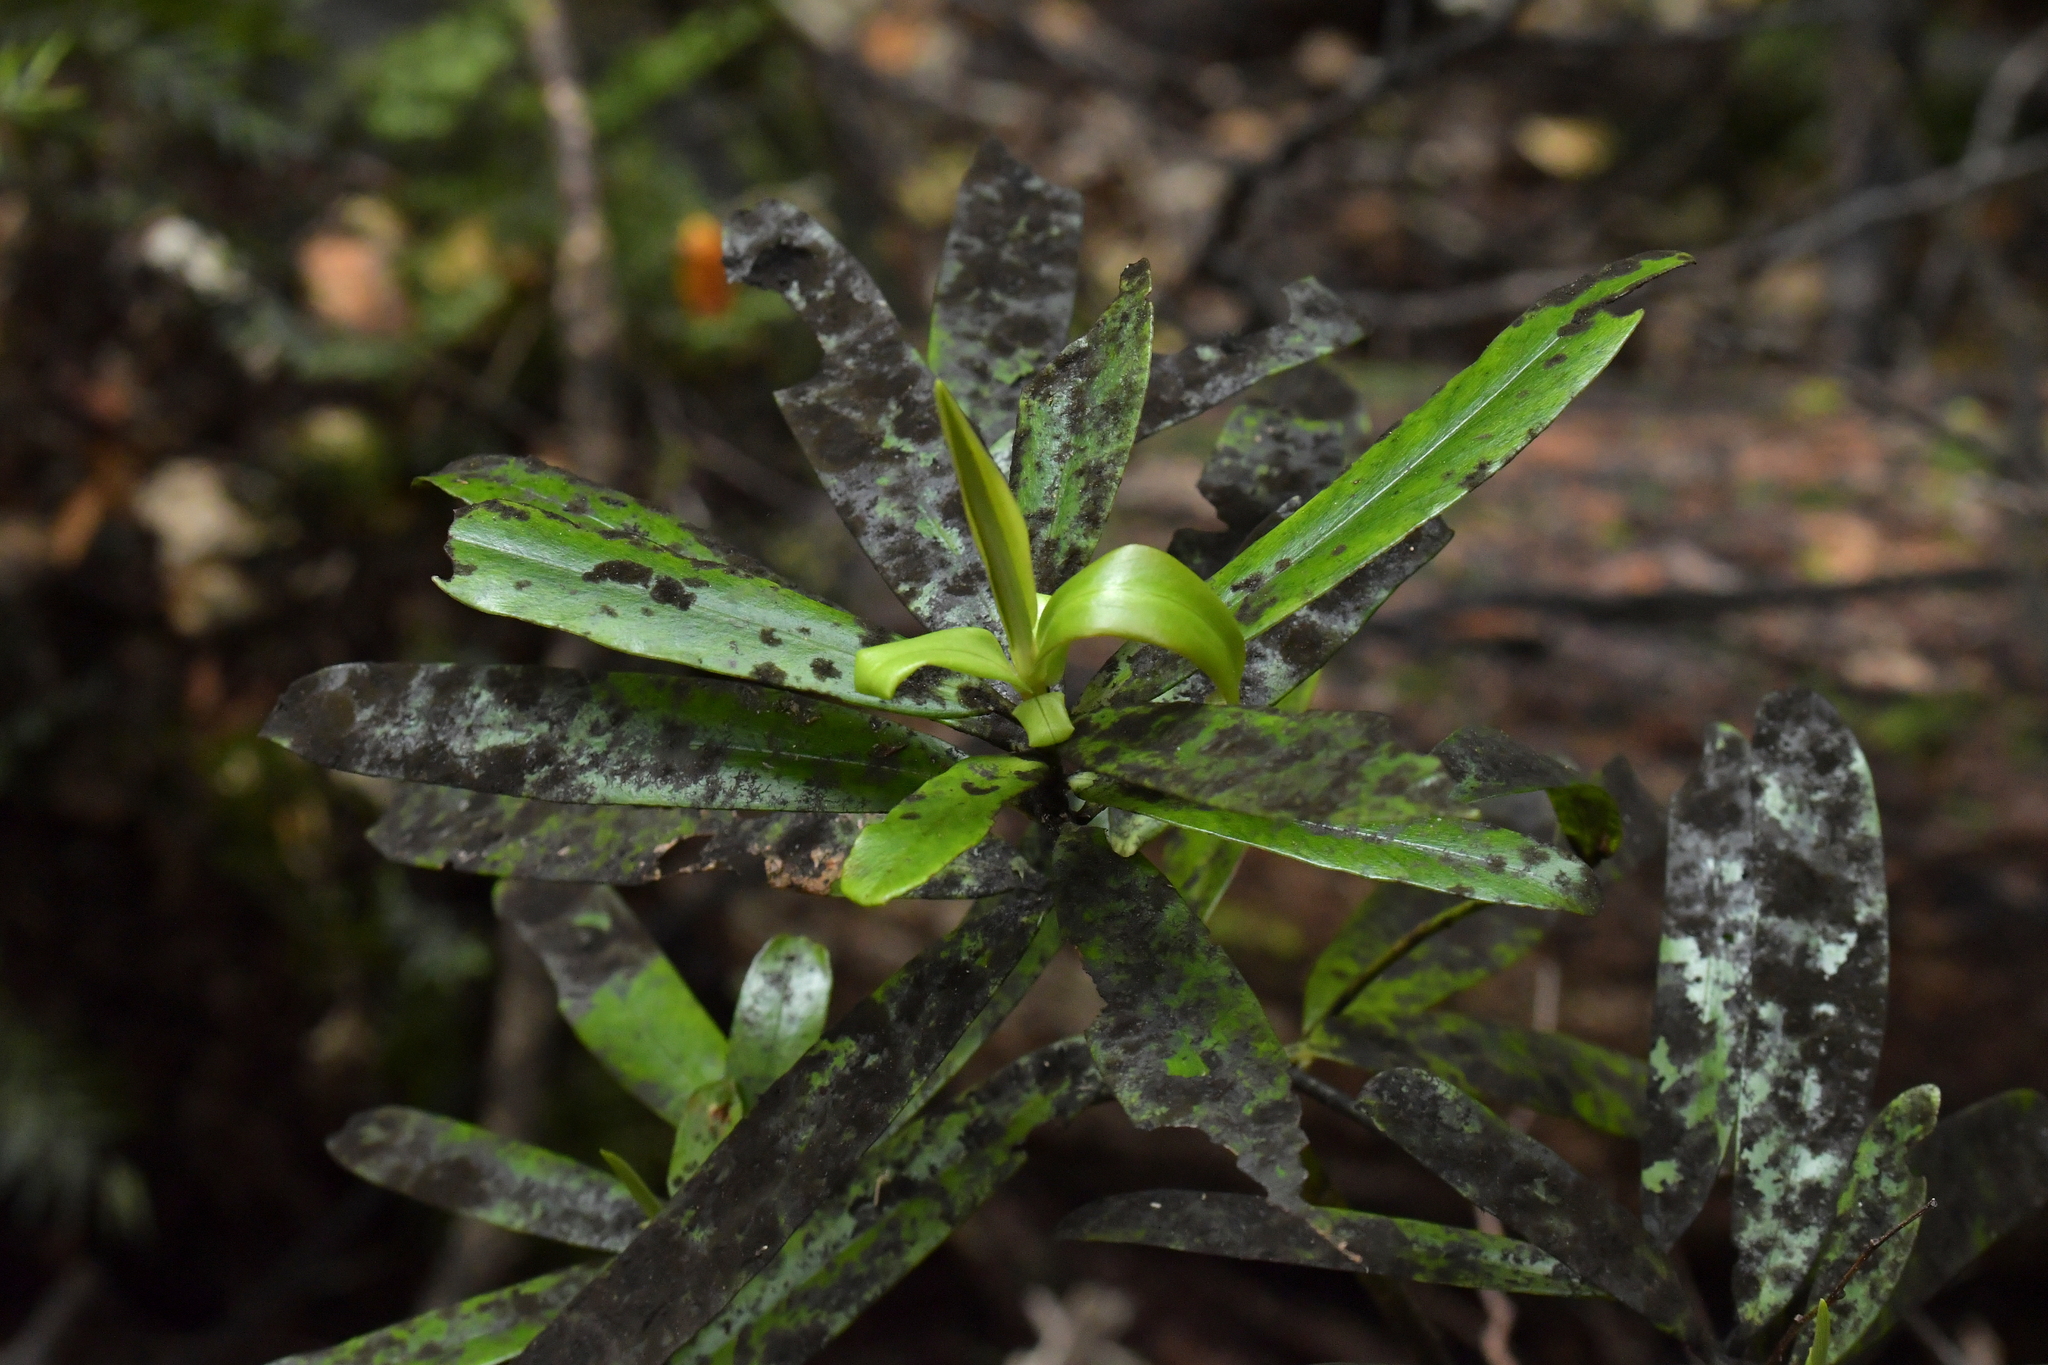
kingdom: Plantae
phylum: Tracheophyta
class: Magnoliopsida
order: Ericales
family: Primulaceae
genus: Myrsine
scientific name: Myrsine salicina
